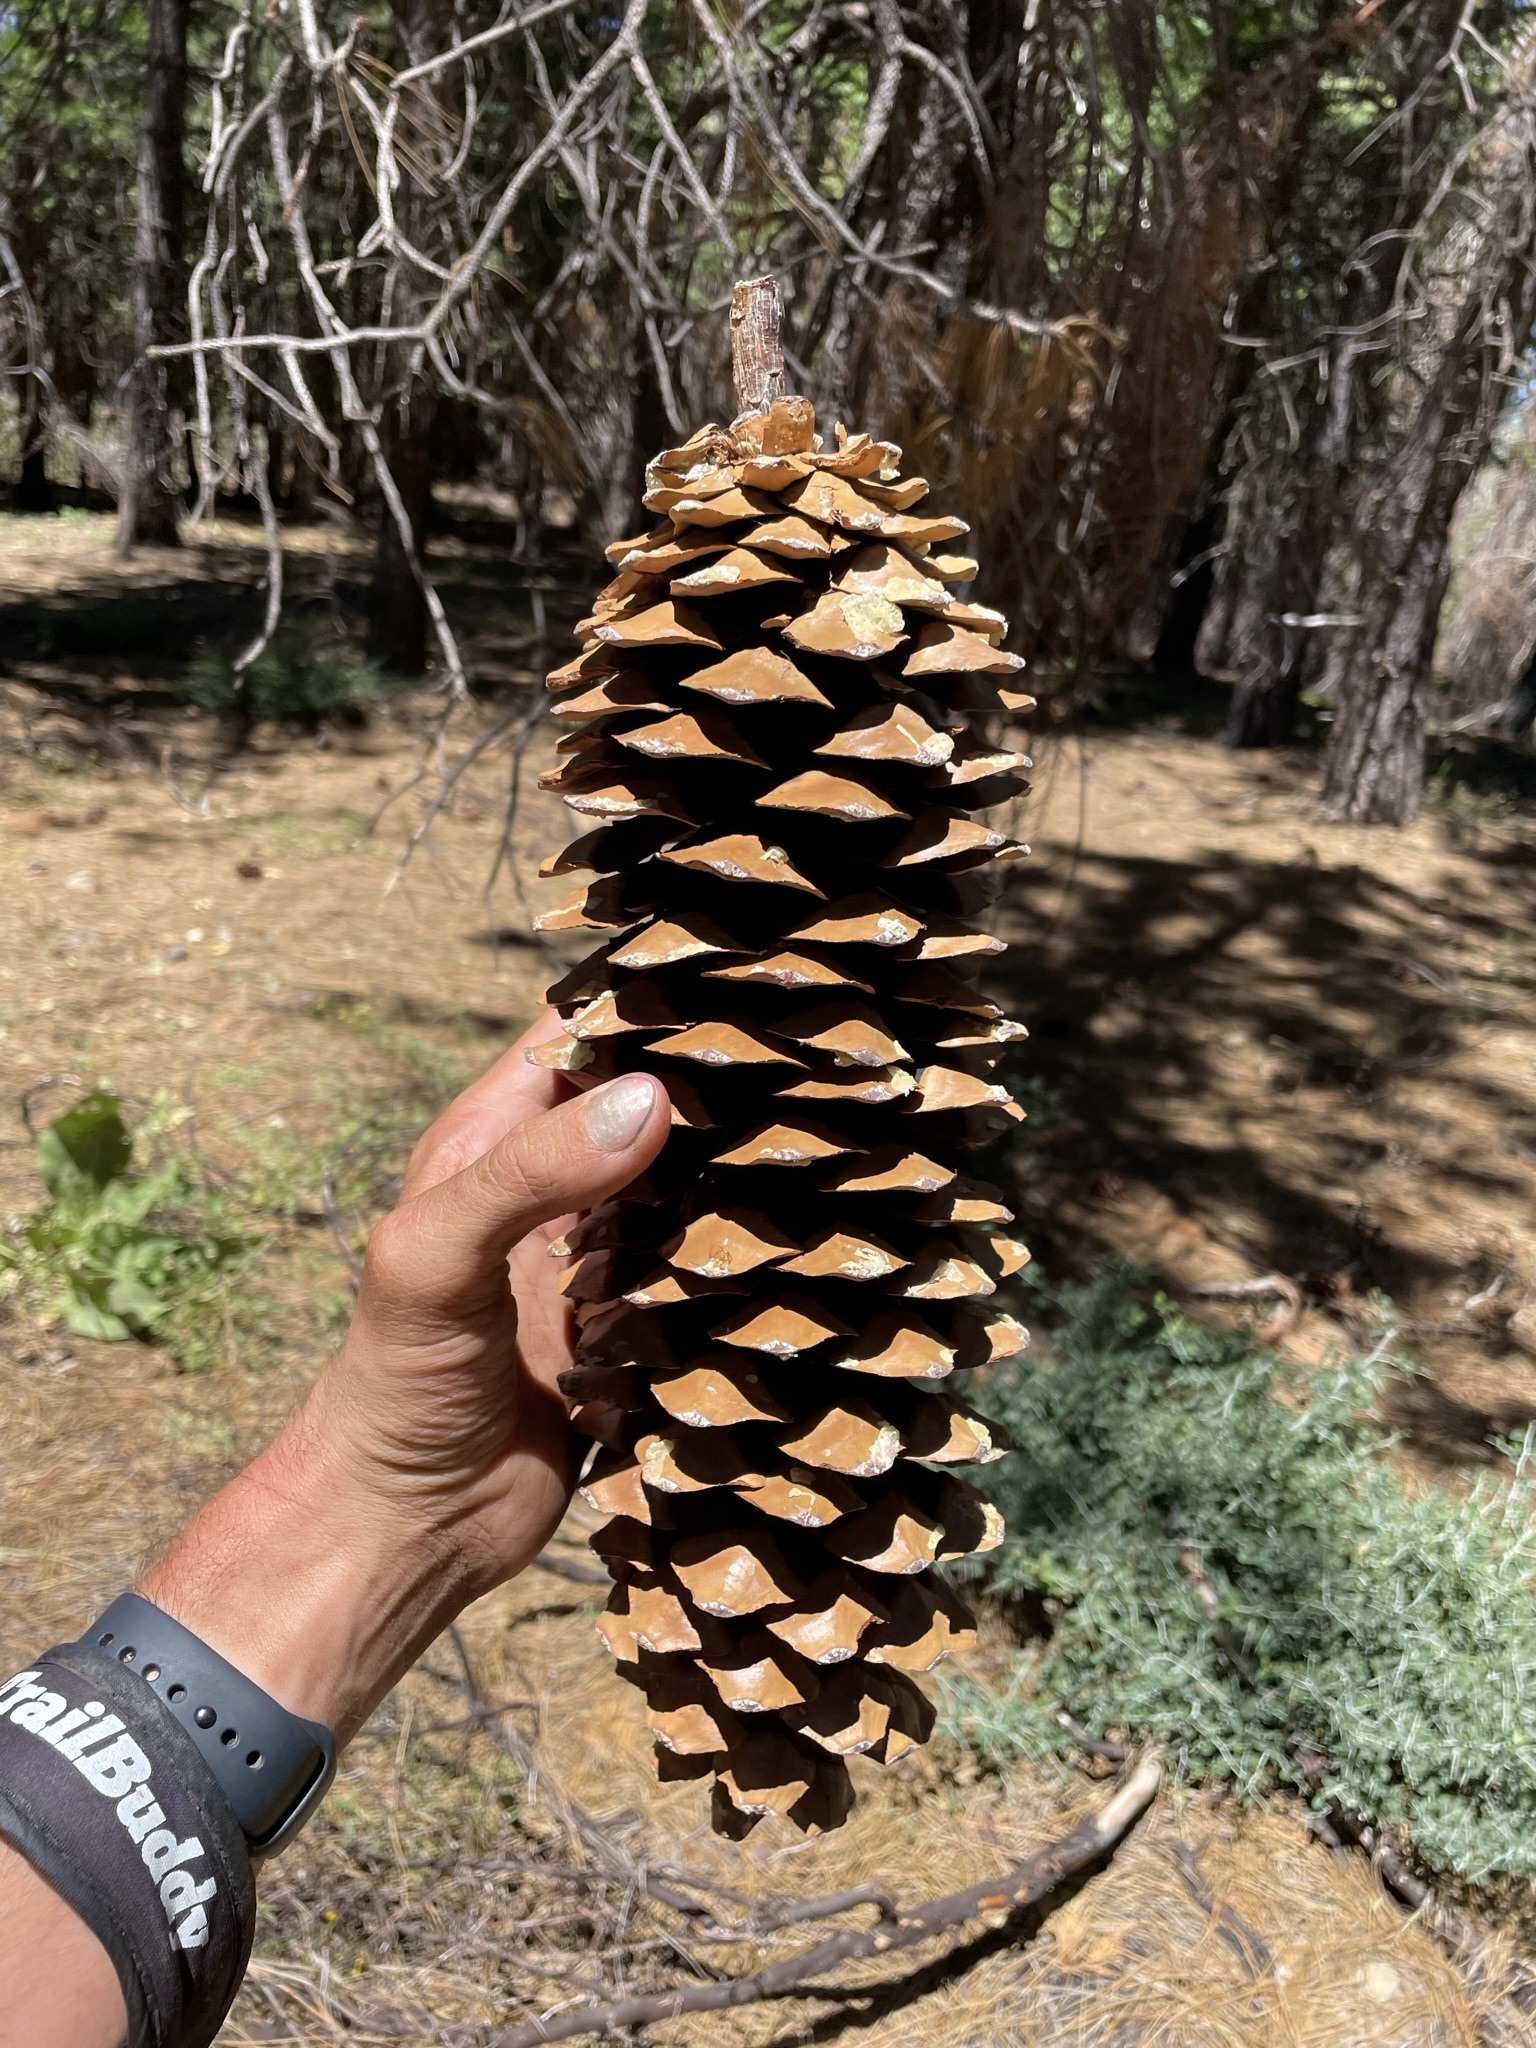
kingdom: Plantae
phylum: Tracheophyta
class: Pinopsida
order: Pinales
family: Pinaceae
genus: Pinus
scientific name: Pinus lambertiana
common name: Sugar pine
